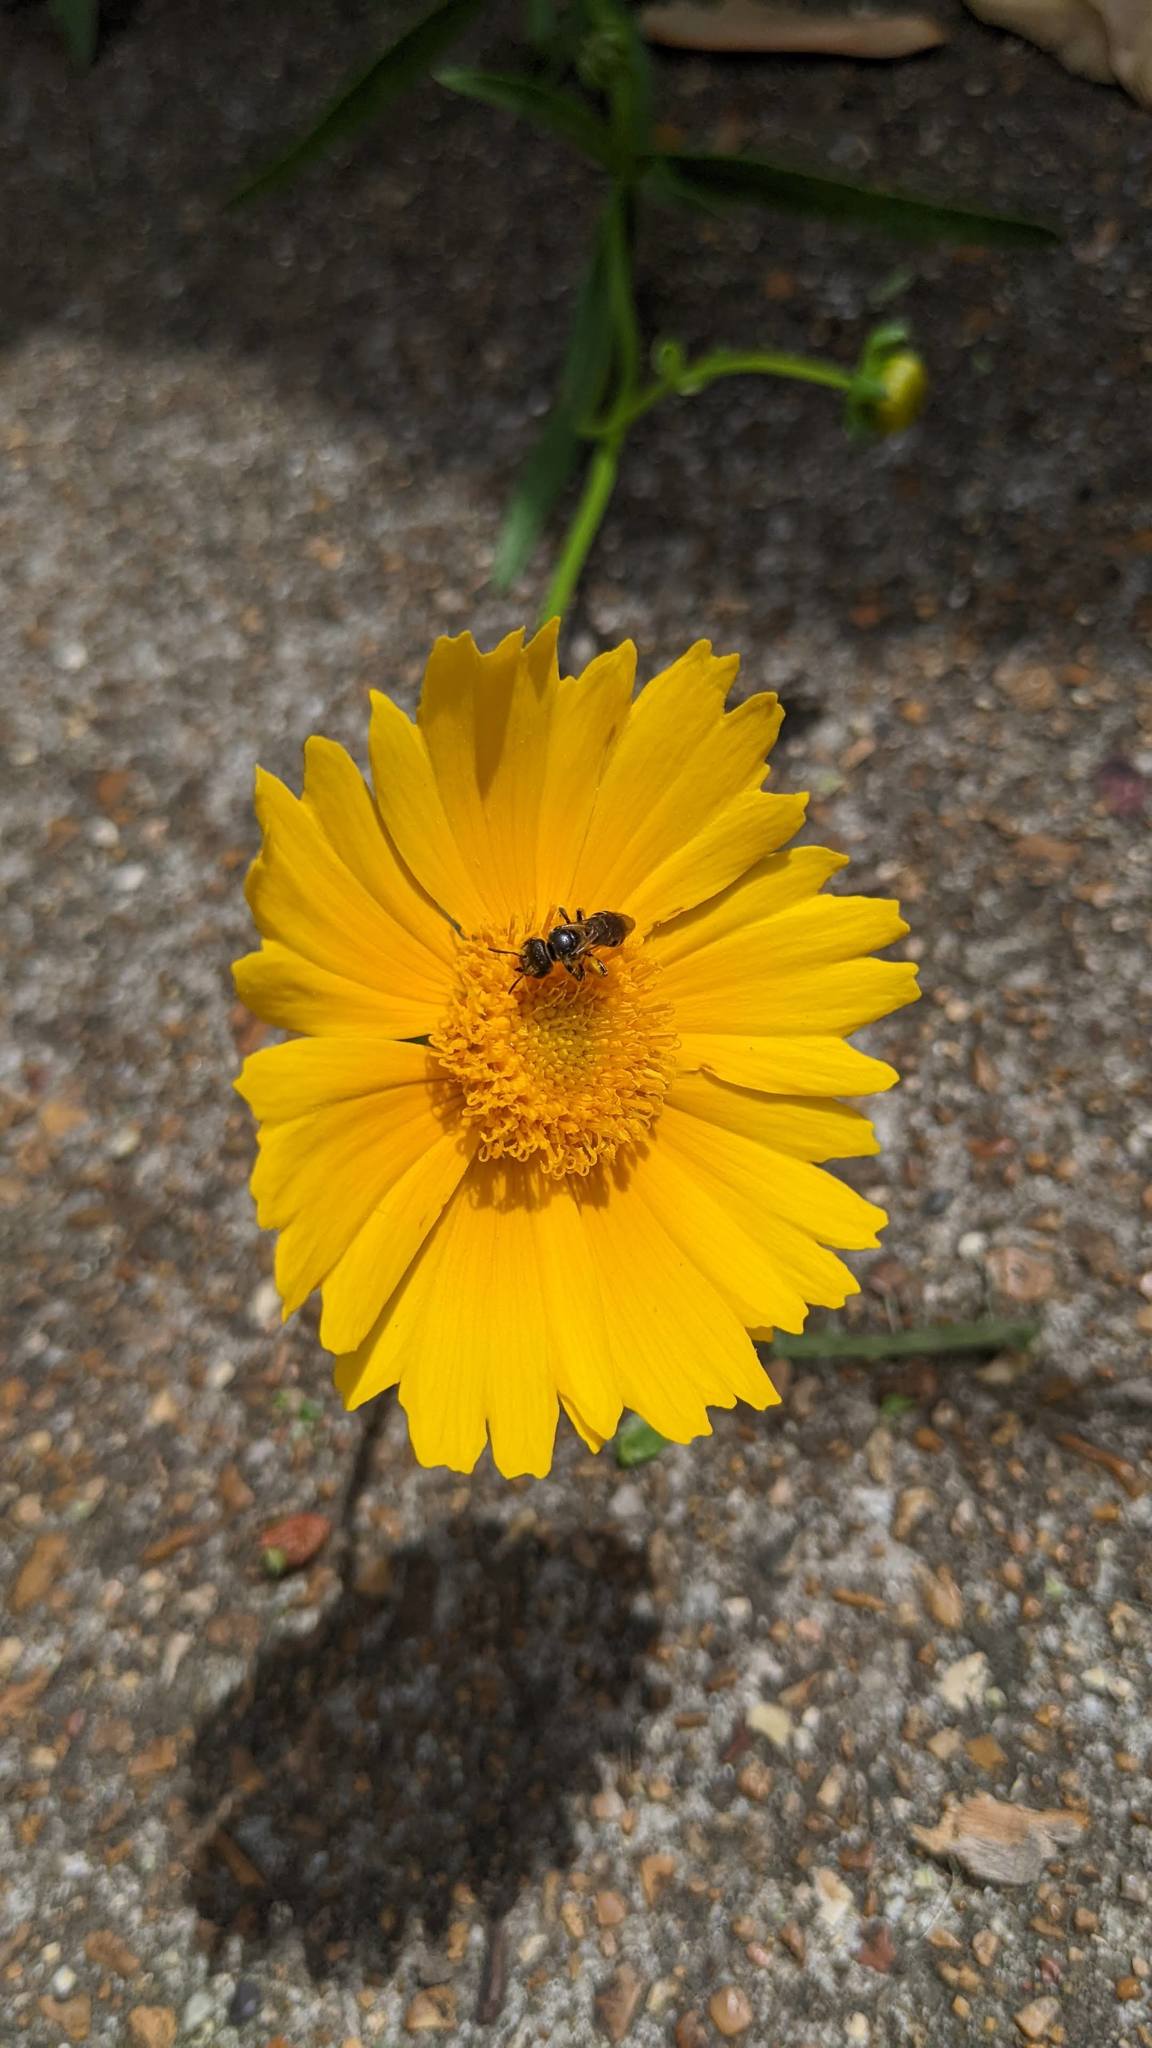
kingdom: Animalia
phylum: Arthropoda
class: Insecta
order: Hymenoptera
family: Halictidae
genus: Halictus
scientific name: Halictus ligatus
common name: Ligated furrow bee
